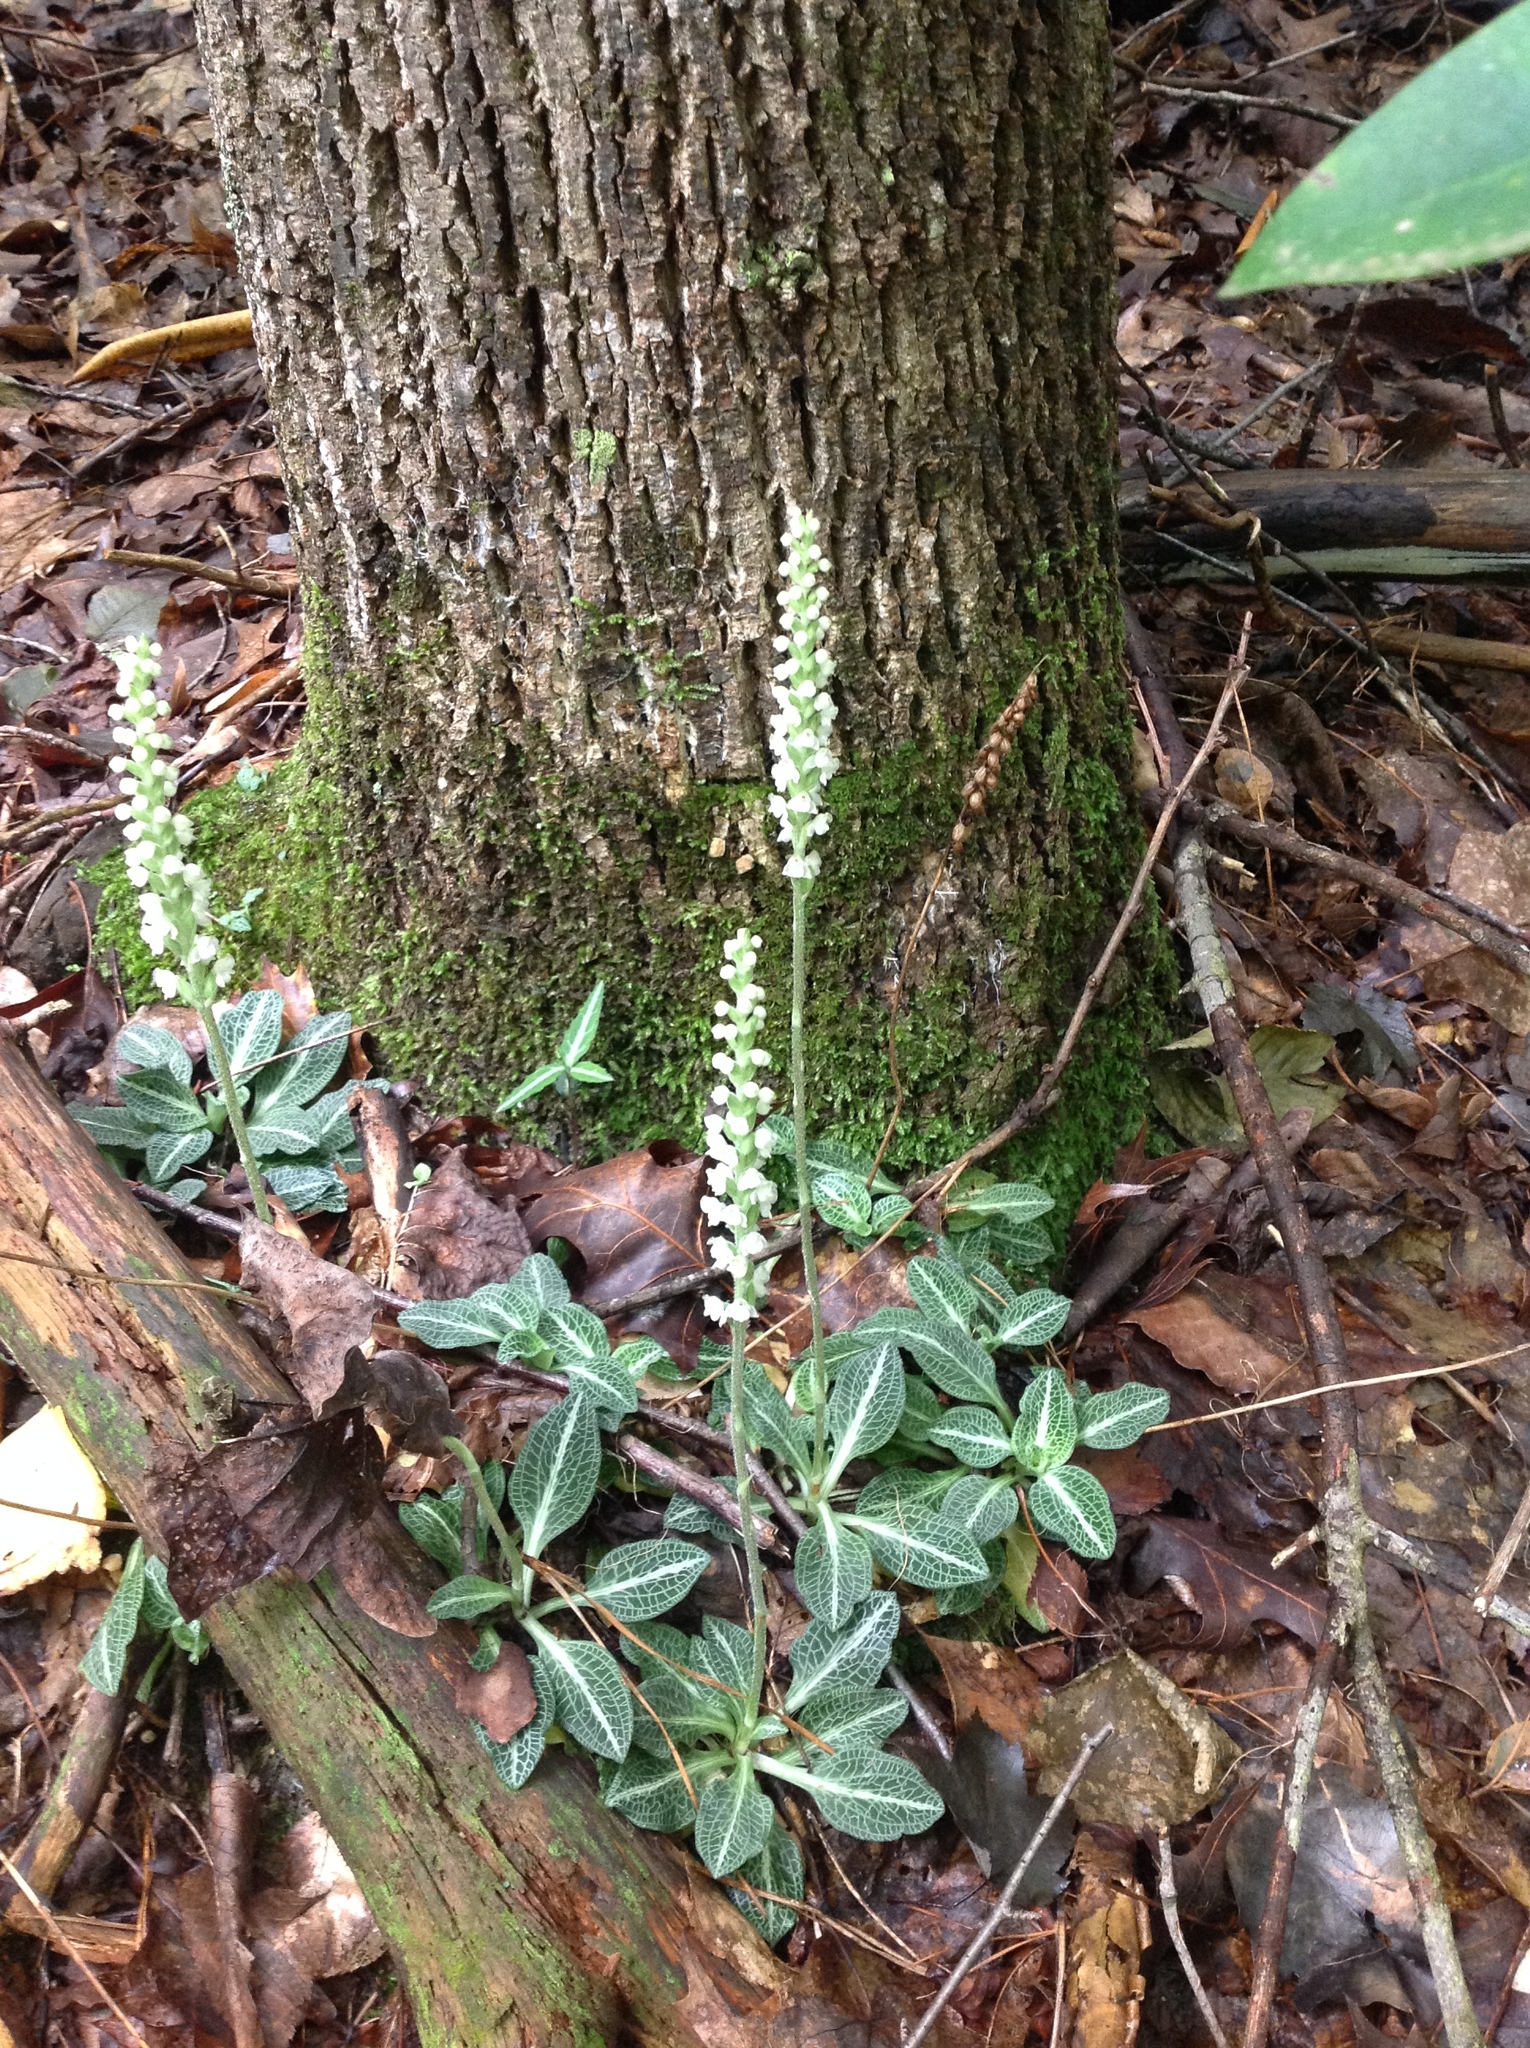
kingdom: Plantae
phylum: Tracheophyta
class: Liliopsida
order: Asparagales
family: Orchidaceae
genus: Goodyera
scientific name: Goodyera pubescens
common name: Downy rattlesnake-plantain
